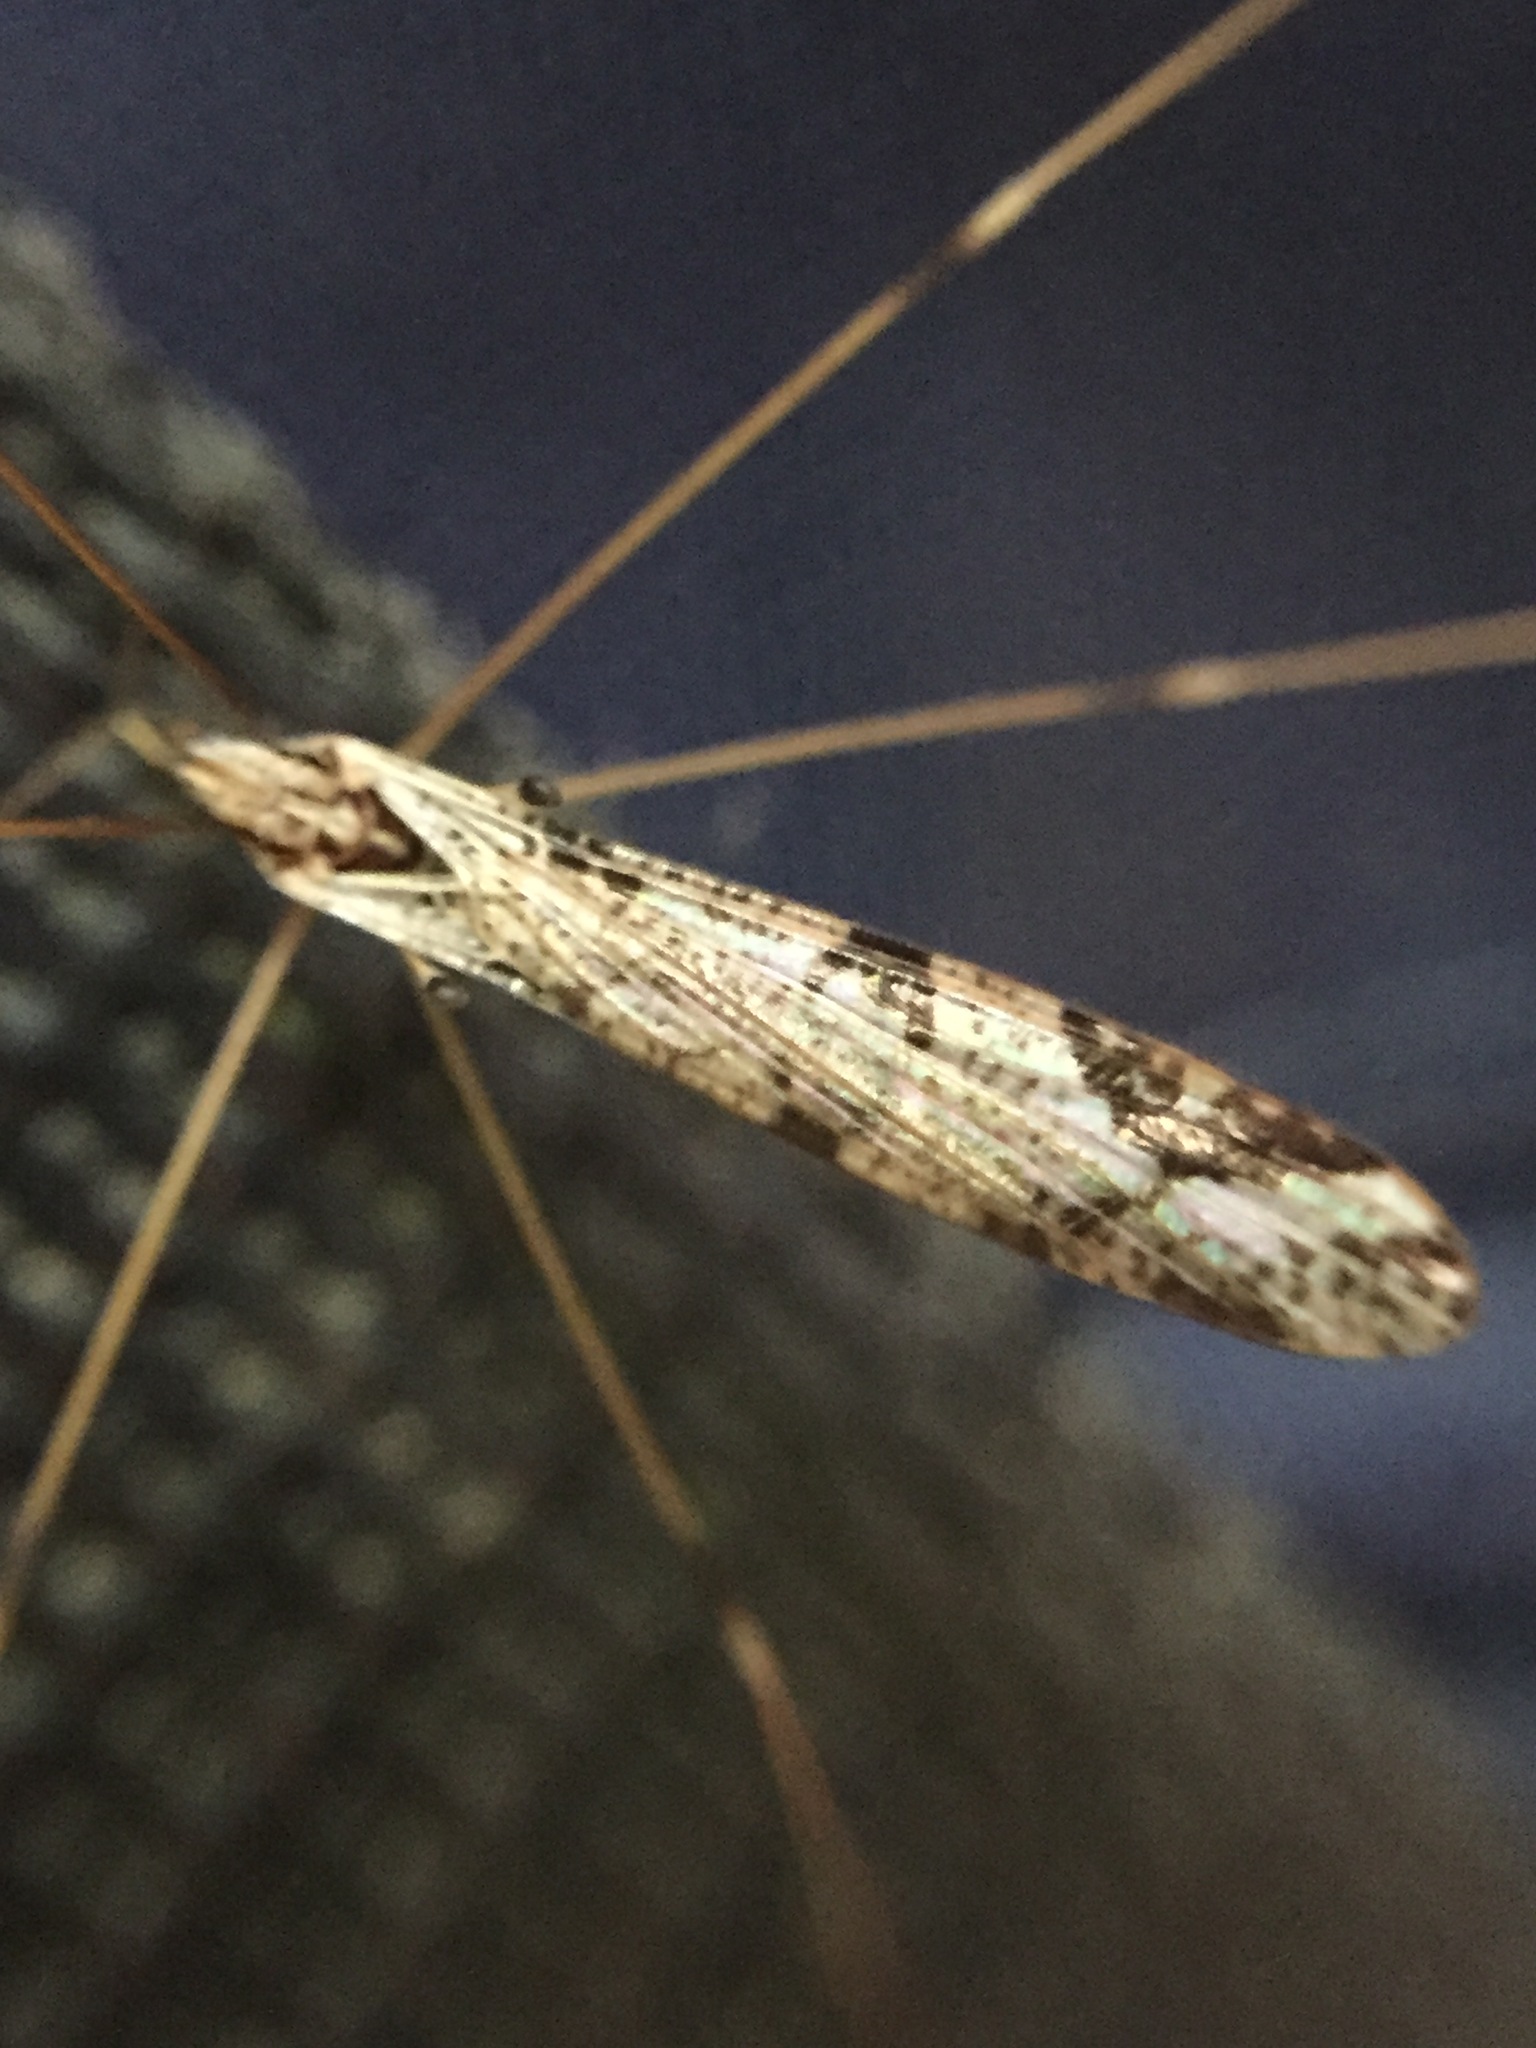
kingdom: Animalia
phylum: Arthropoda
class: Insecta
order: Diptera
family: Limoniidae
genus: Discobola
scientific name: Discobola striata
